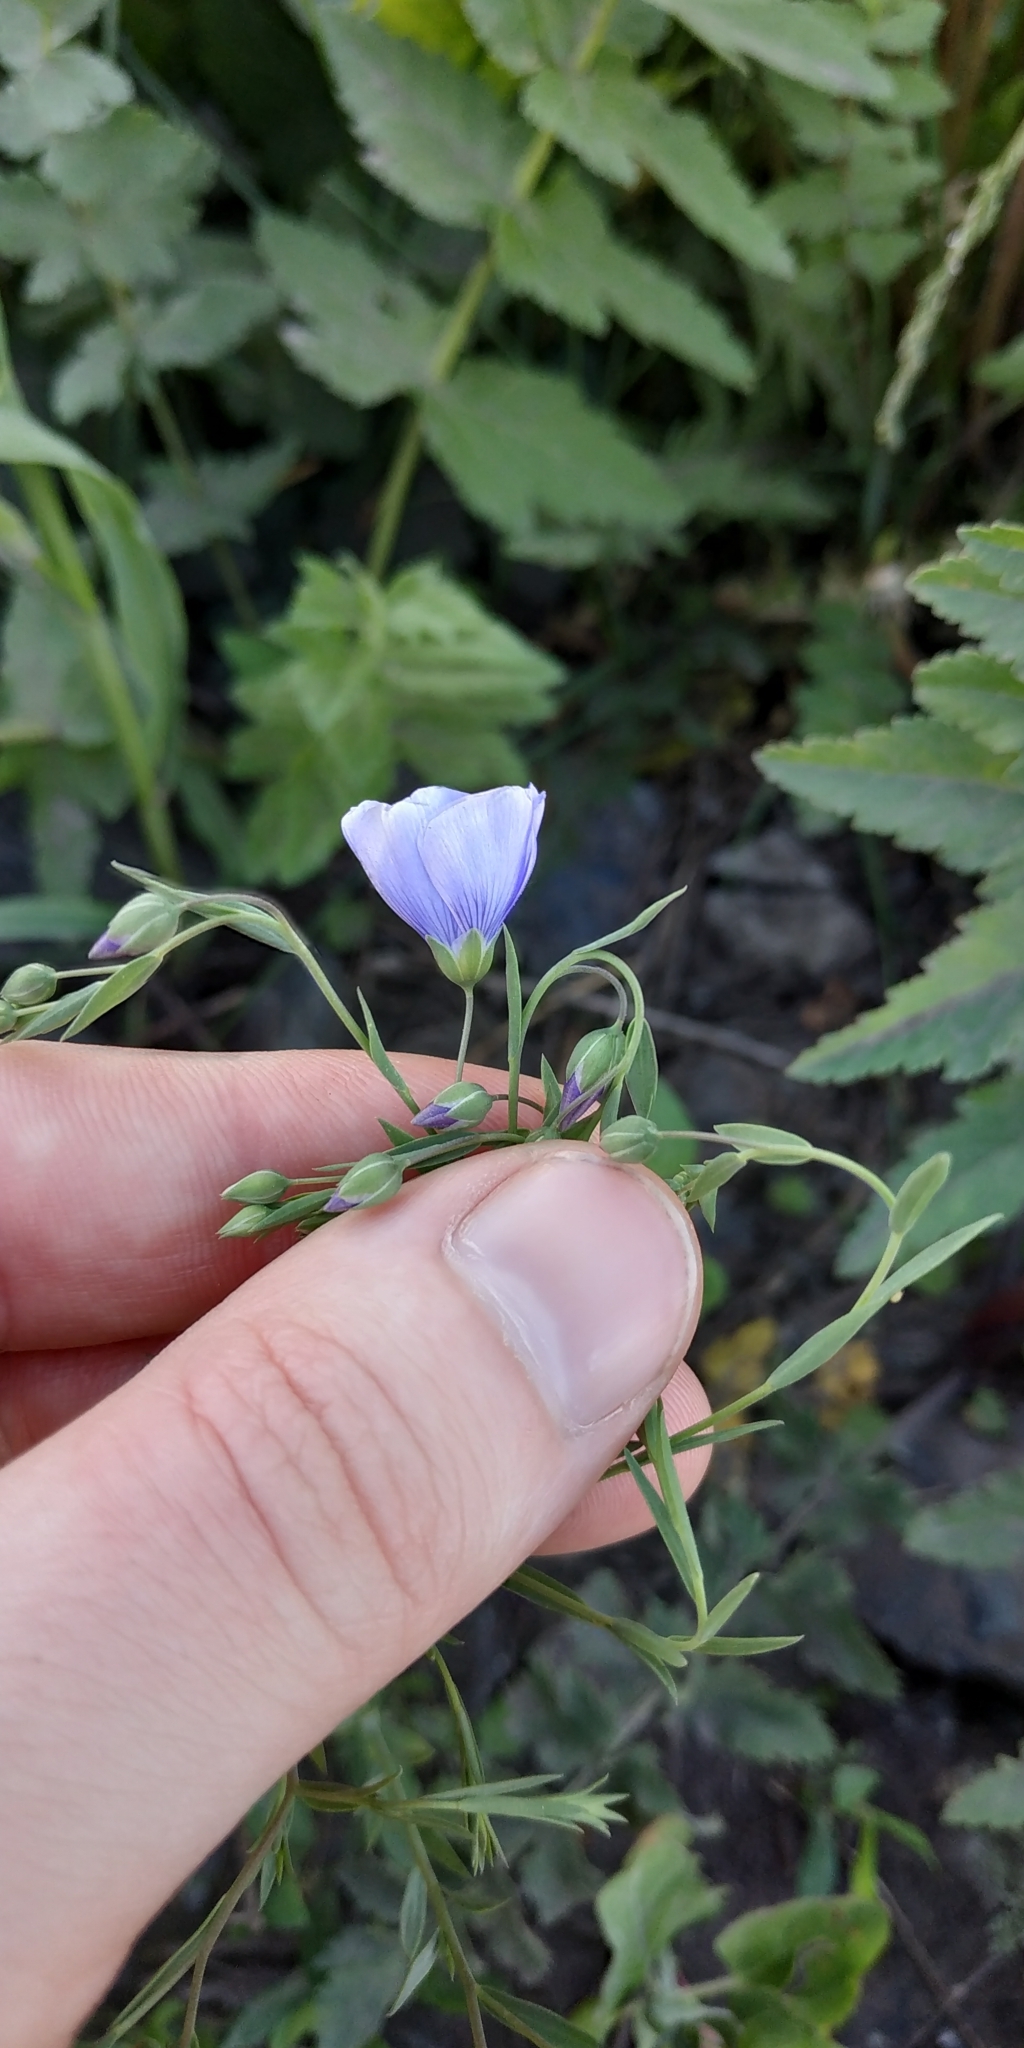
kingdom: Plantae
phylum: Tracheophyta
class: Magnoliopsida
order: Malpighiales
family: Linaceae
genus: Linum
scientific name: Linum usitatissimum
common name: Flax
